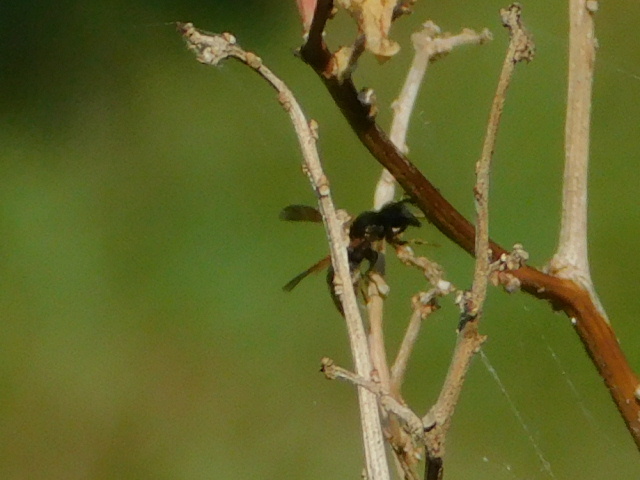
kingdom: Animalia
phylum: Arthropoda
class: Insecta
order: Hymenoptera
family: Eumenidae
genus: Pachodynerus
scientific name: Pachodynerus nasidens
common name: Key hole wasp
